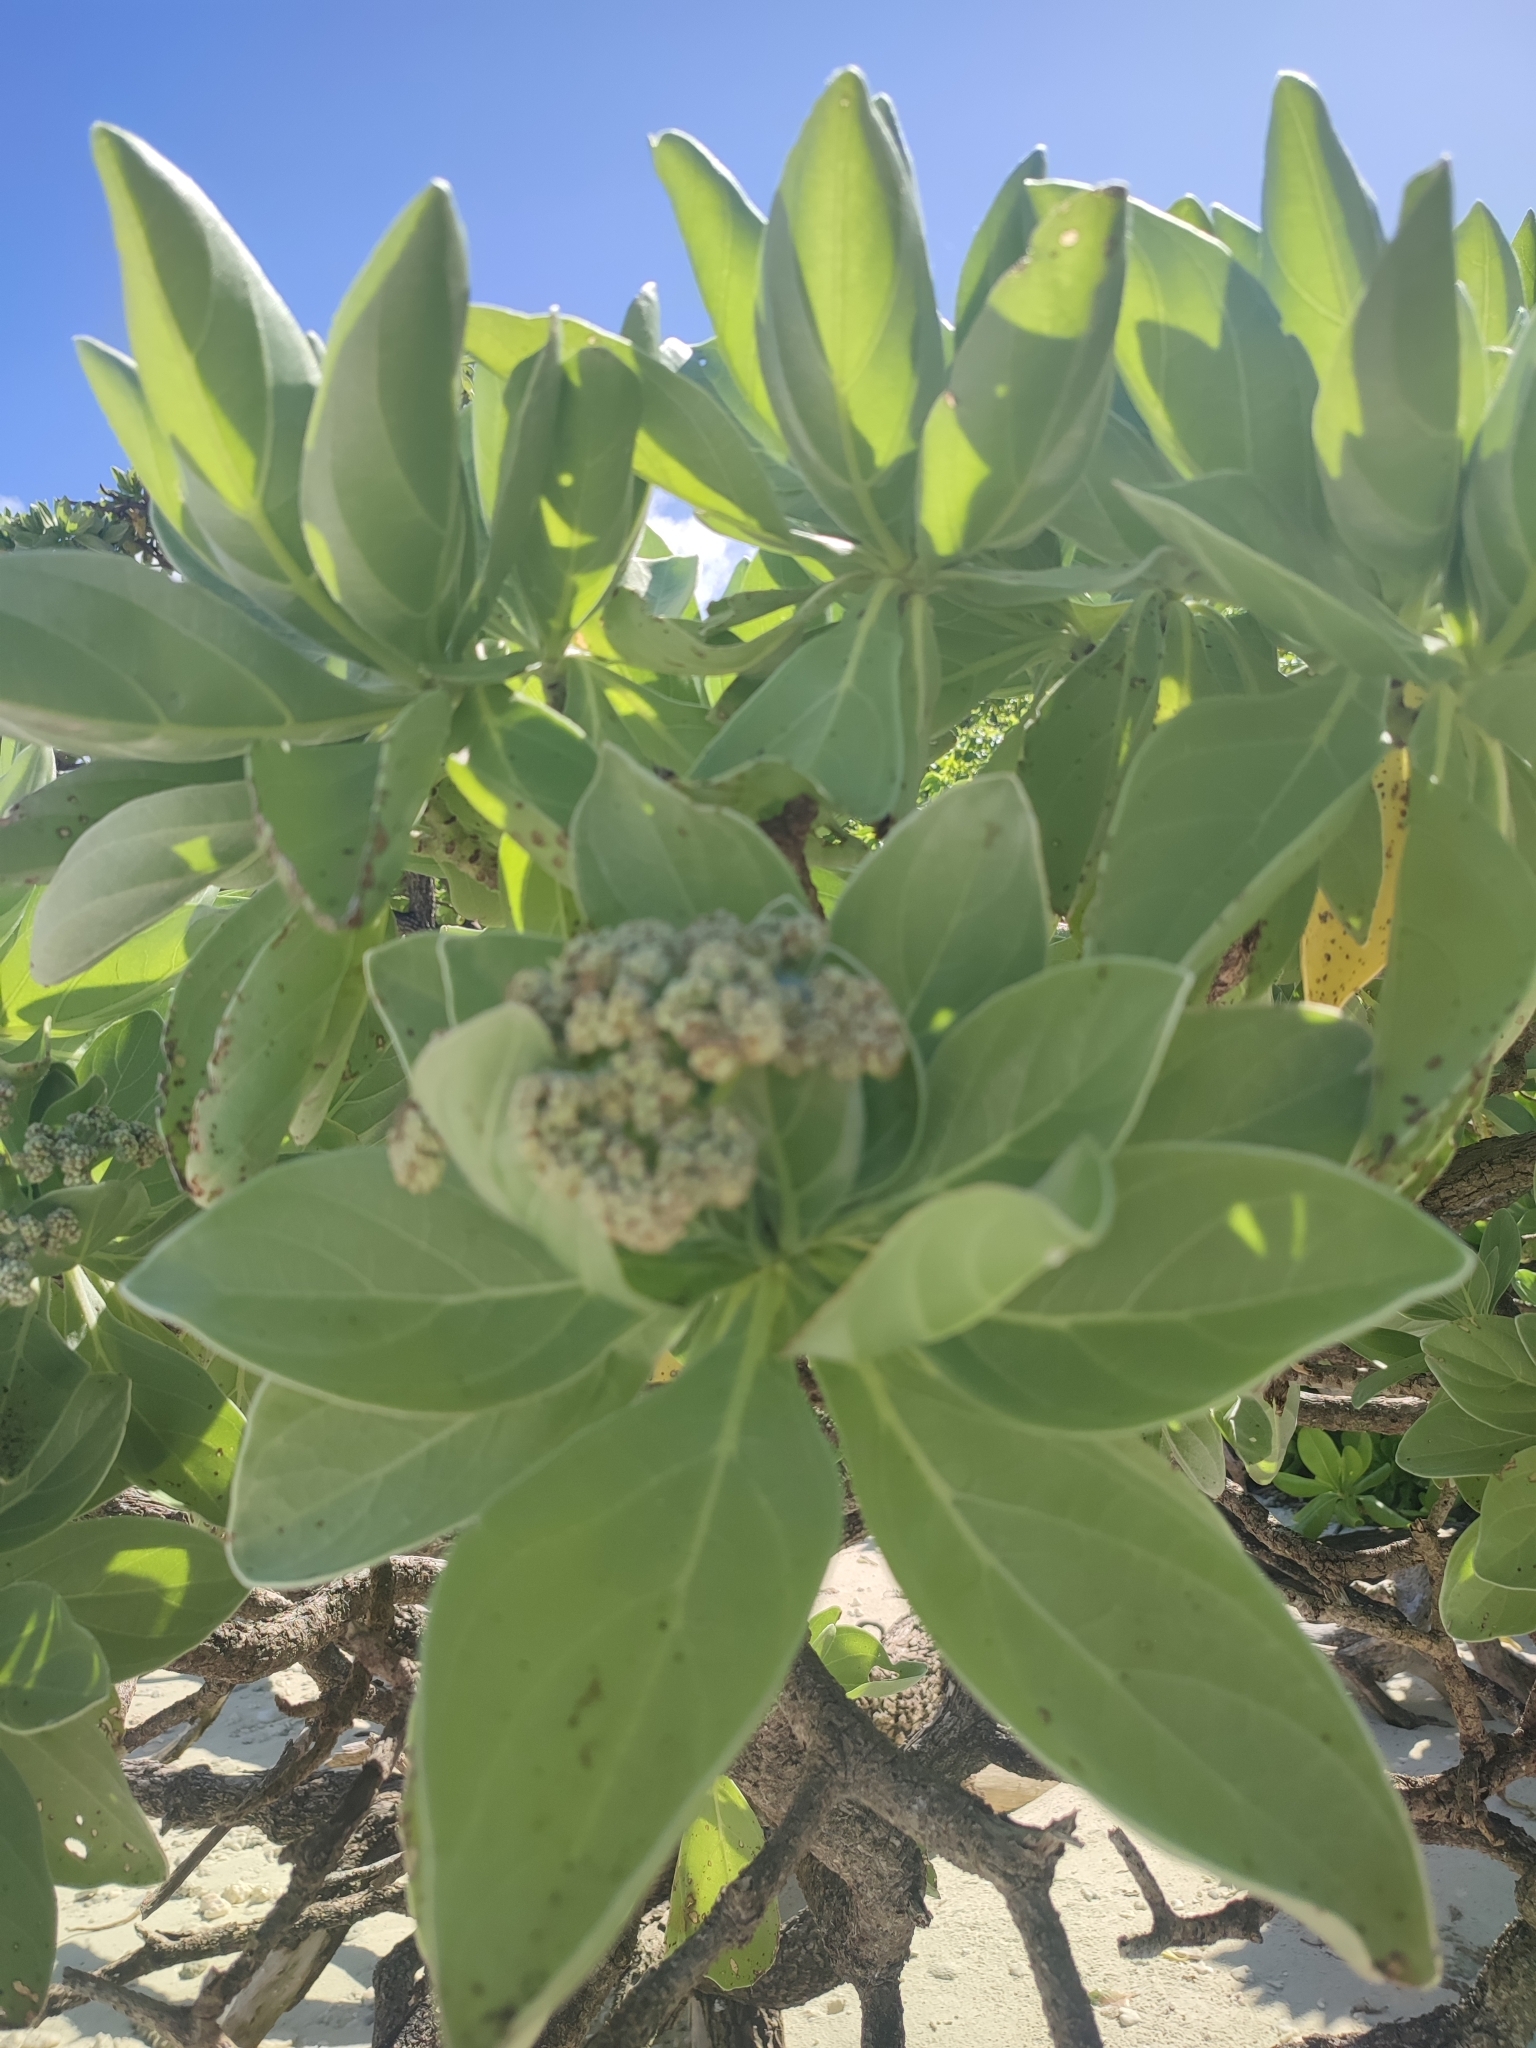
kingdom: Plantae
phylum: Tracheophyta
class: Magnoliopsida
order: Boraginales
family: Heliotropiaceae
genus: Heliotropium
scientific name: Heliotropium velutinum
